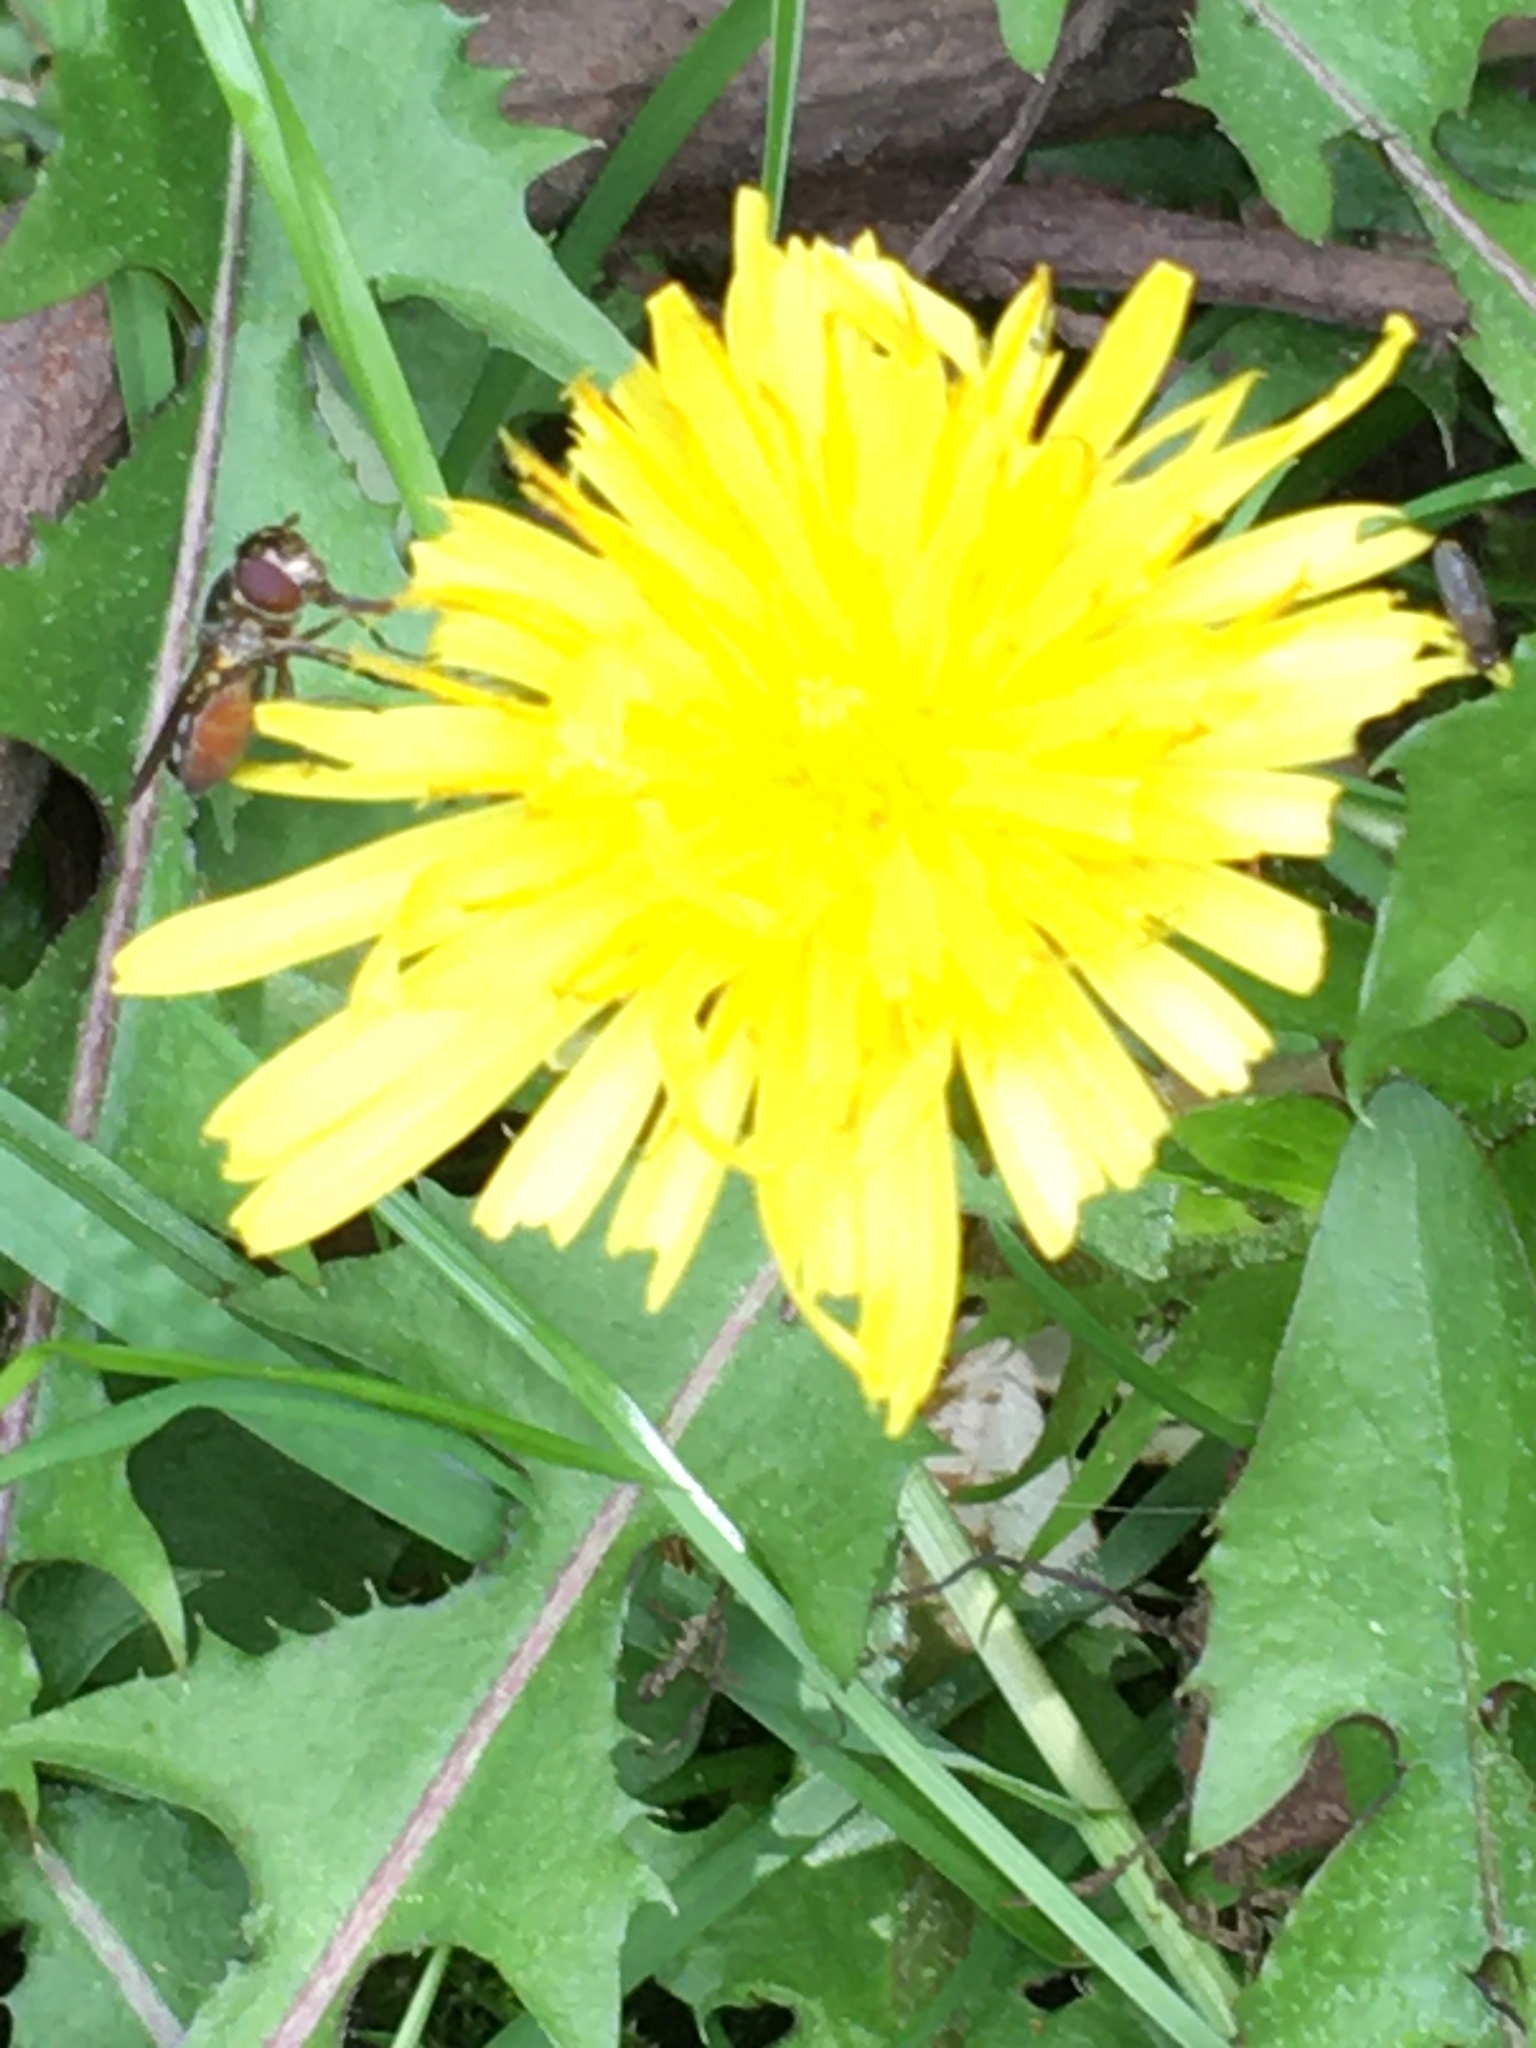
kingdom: Animalia
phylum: Arthropoda
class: Insecta
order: Diptera
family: Syrphidae
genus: Platycheirus
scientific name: Platycheirus albimanus
